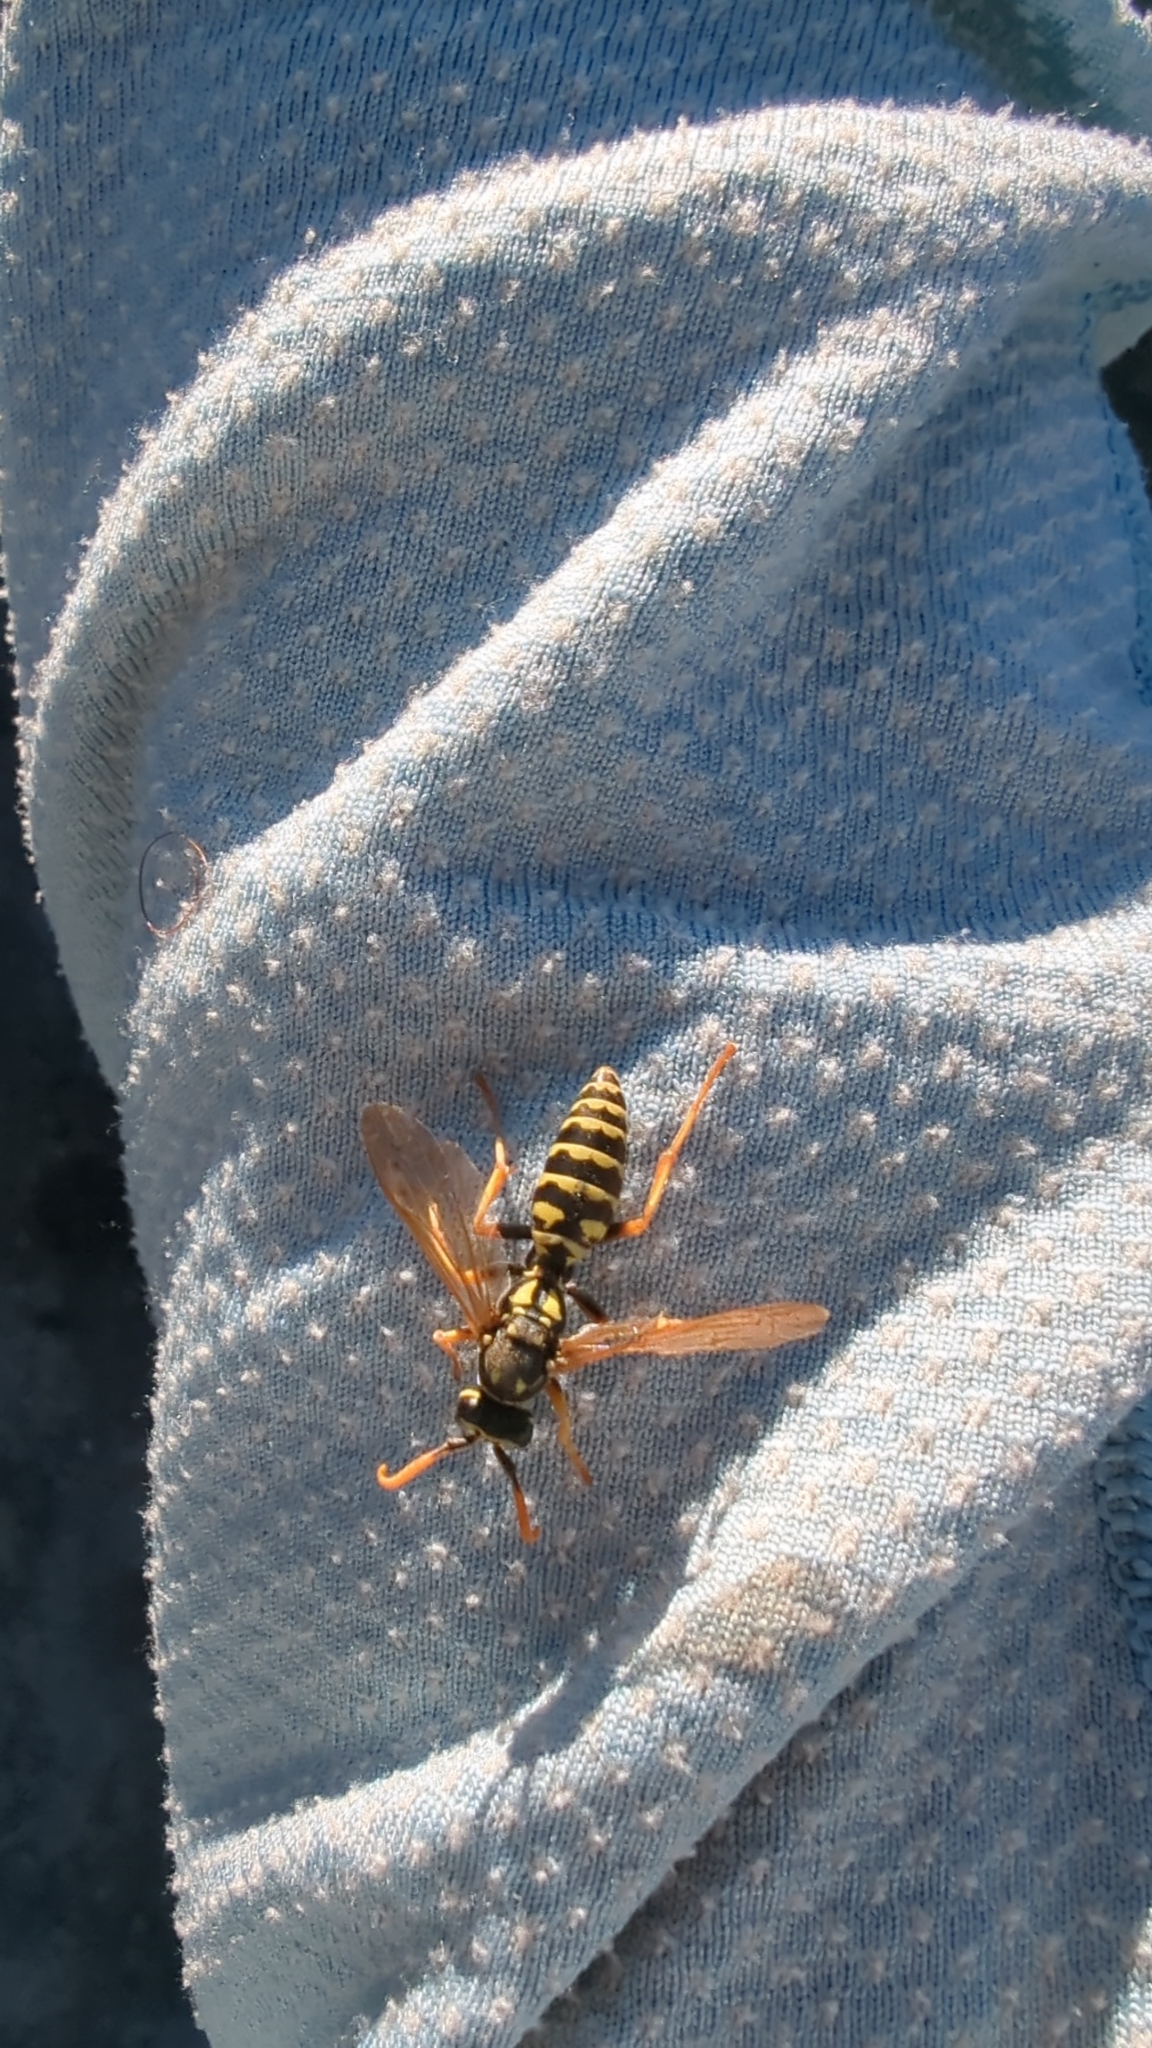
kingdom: Animalia
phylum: Arthropoda
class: Insecta
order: Hymenoptera
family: Eumenidae
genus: Polistes
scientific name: Polistes dominula
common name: Paper wasp
